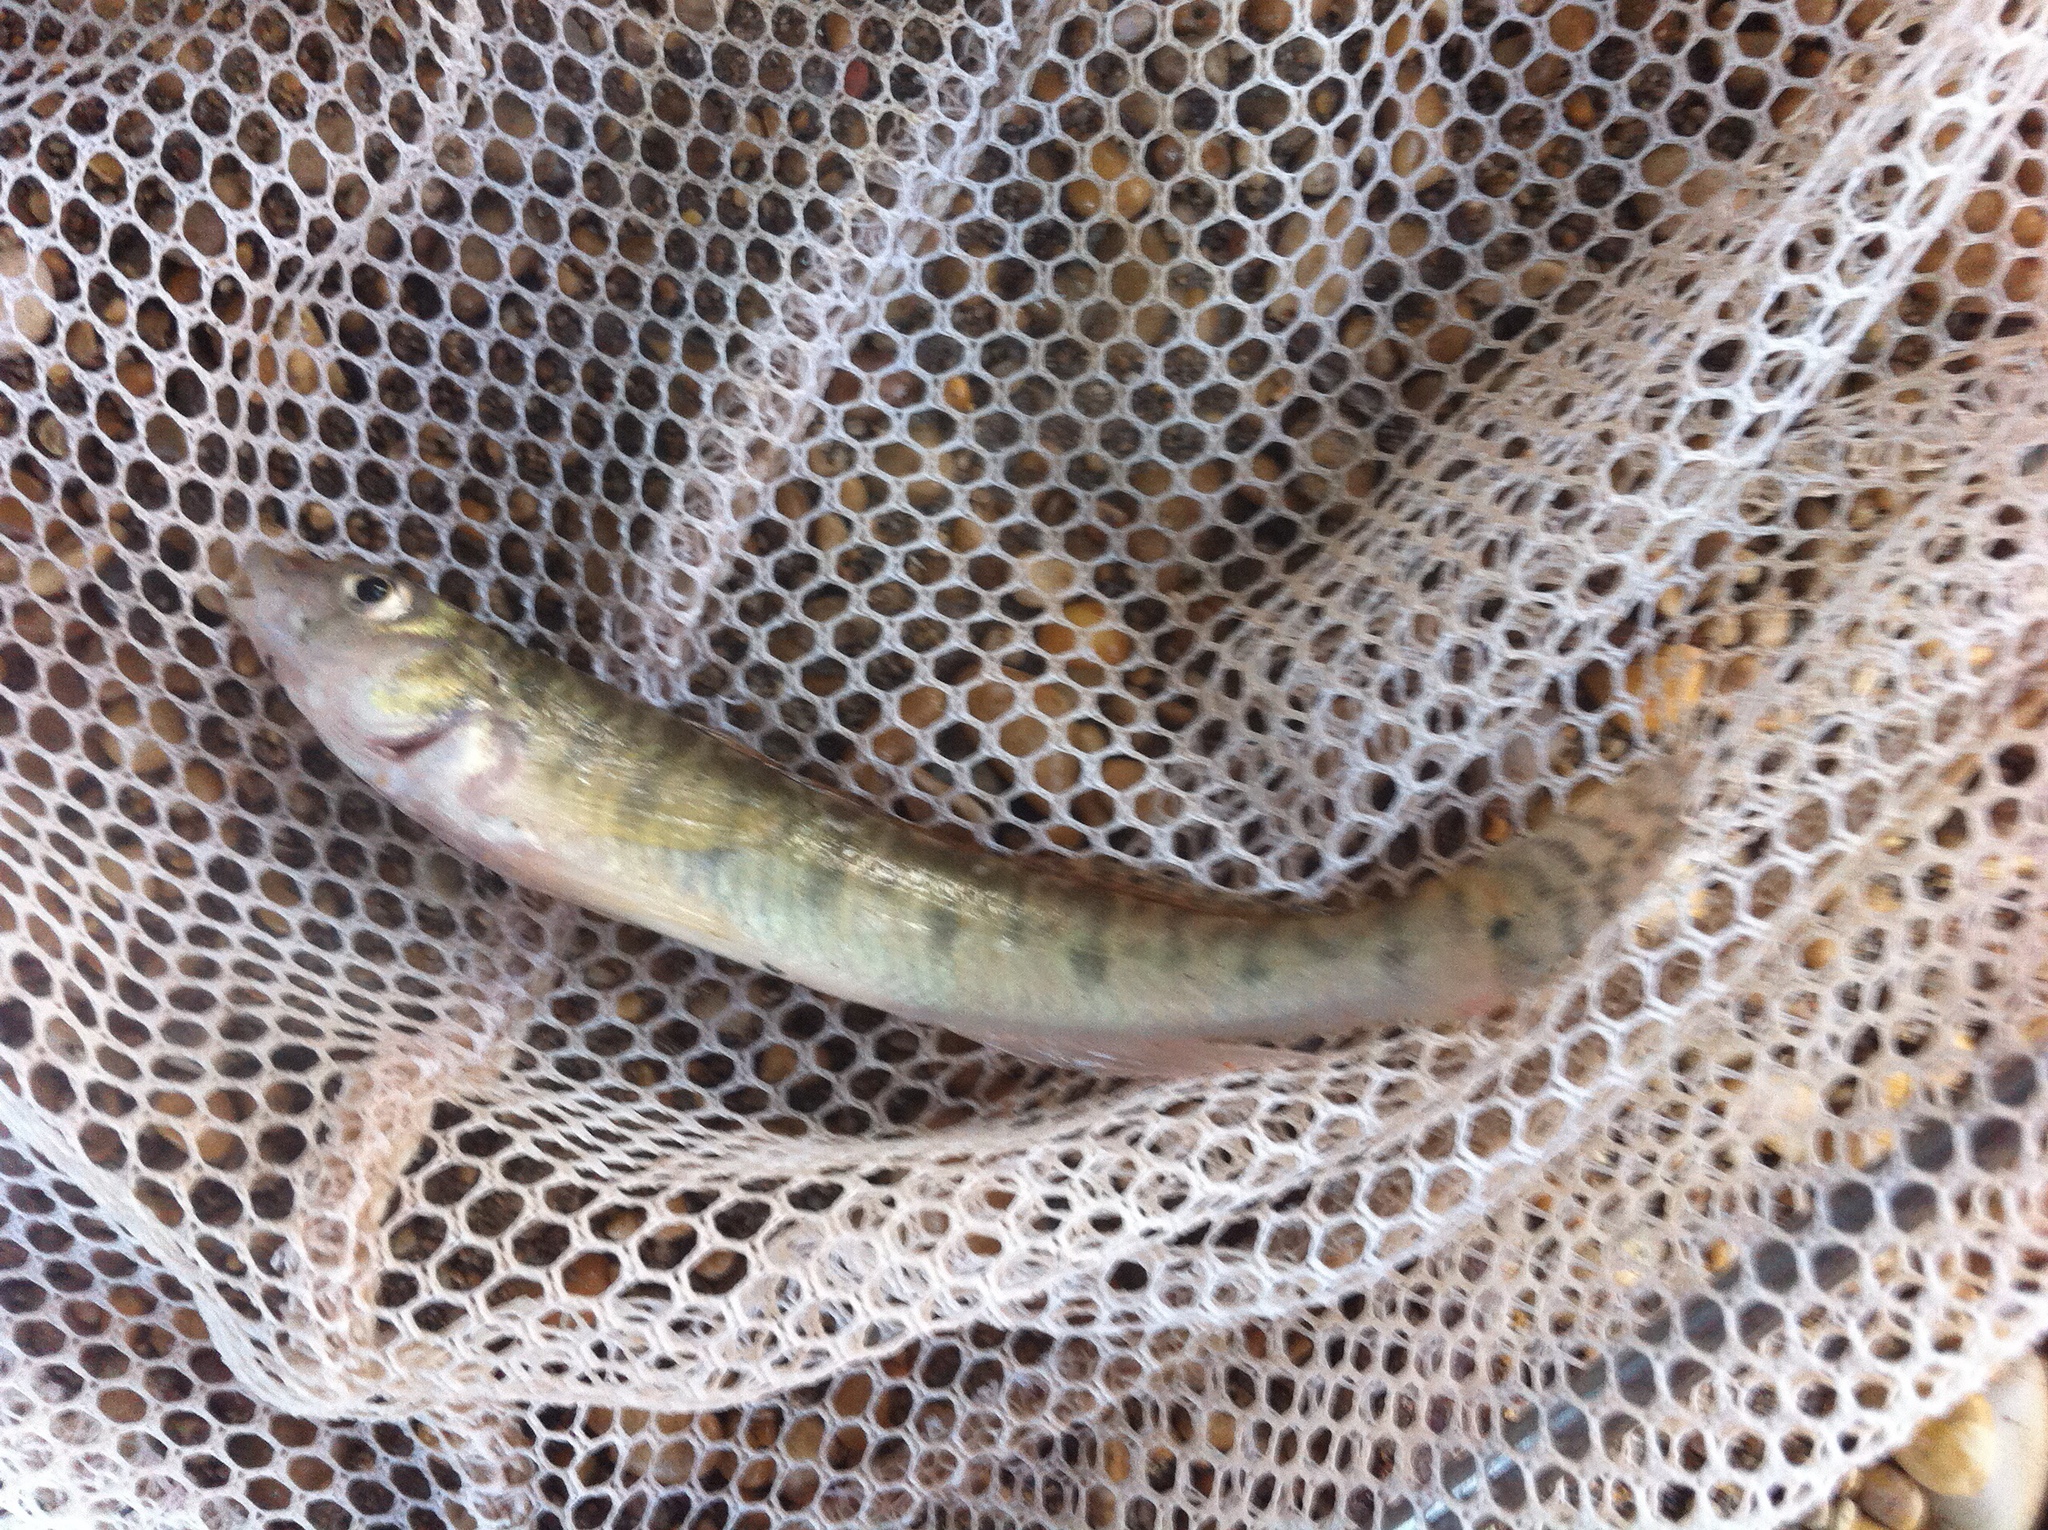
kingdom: Animalia
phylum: Chordata
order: Perciformes
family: Percidae
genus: Percina
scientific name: Percina carbonaria
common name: Texas logperch
